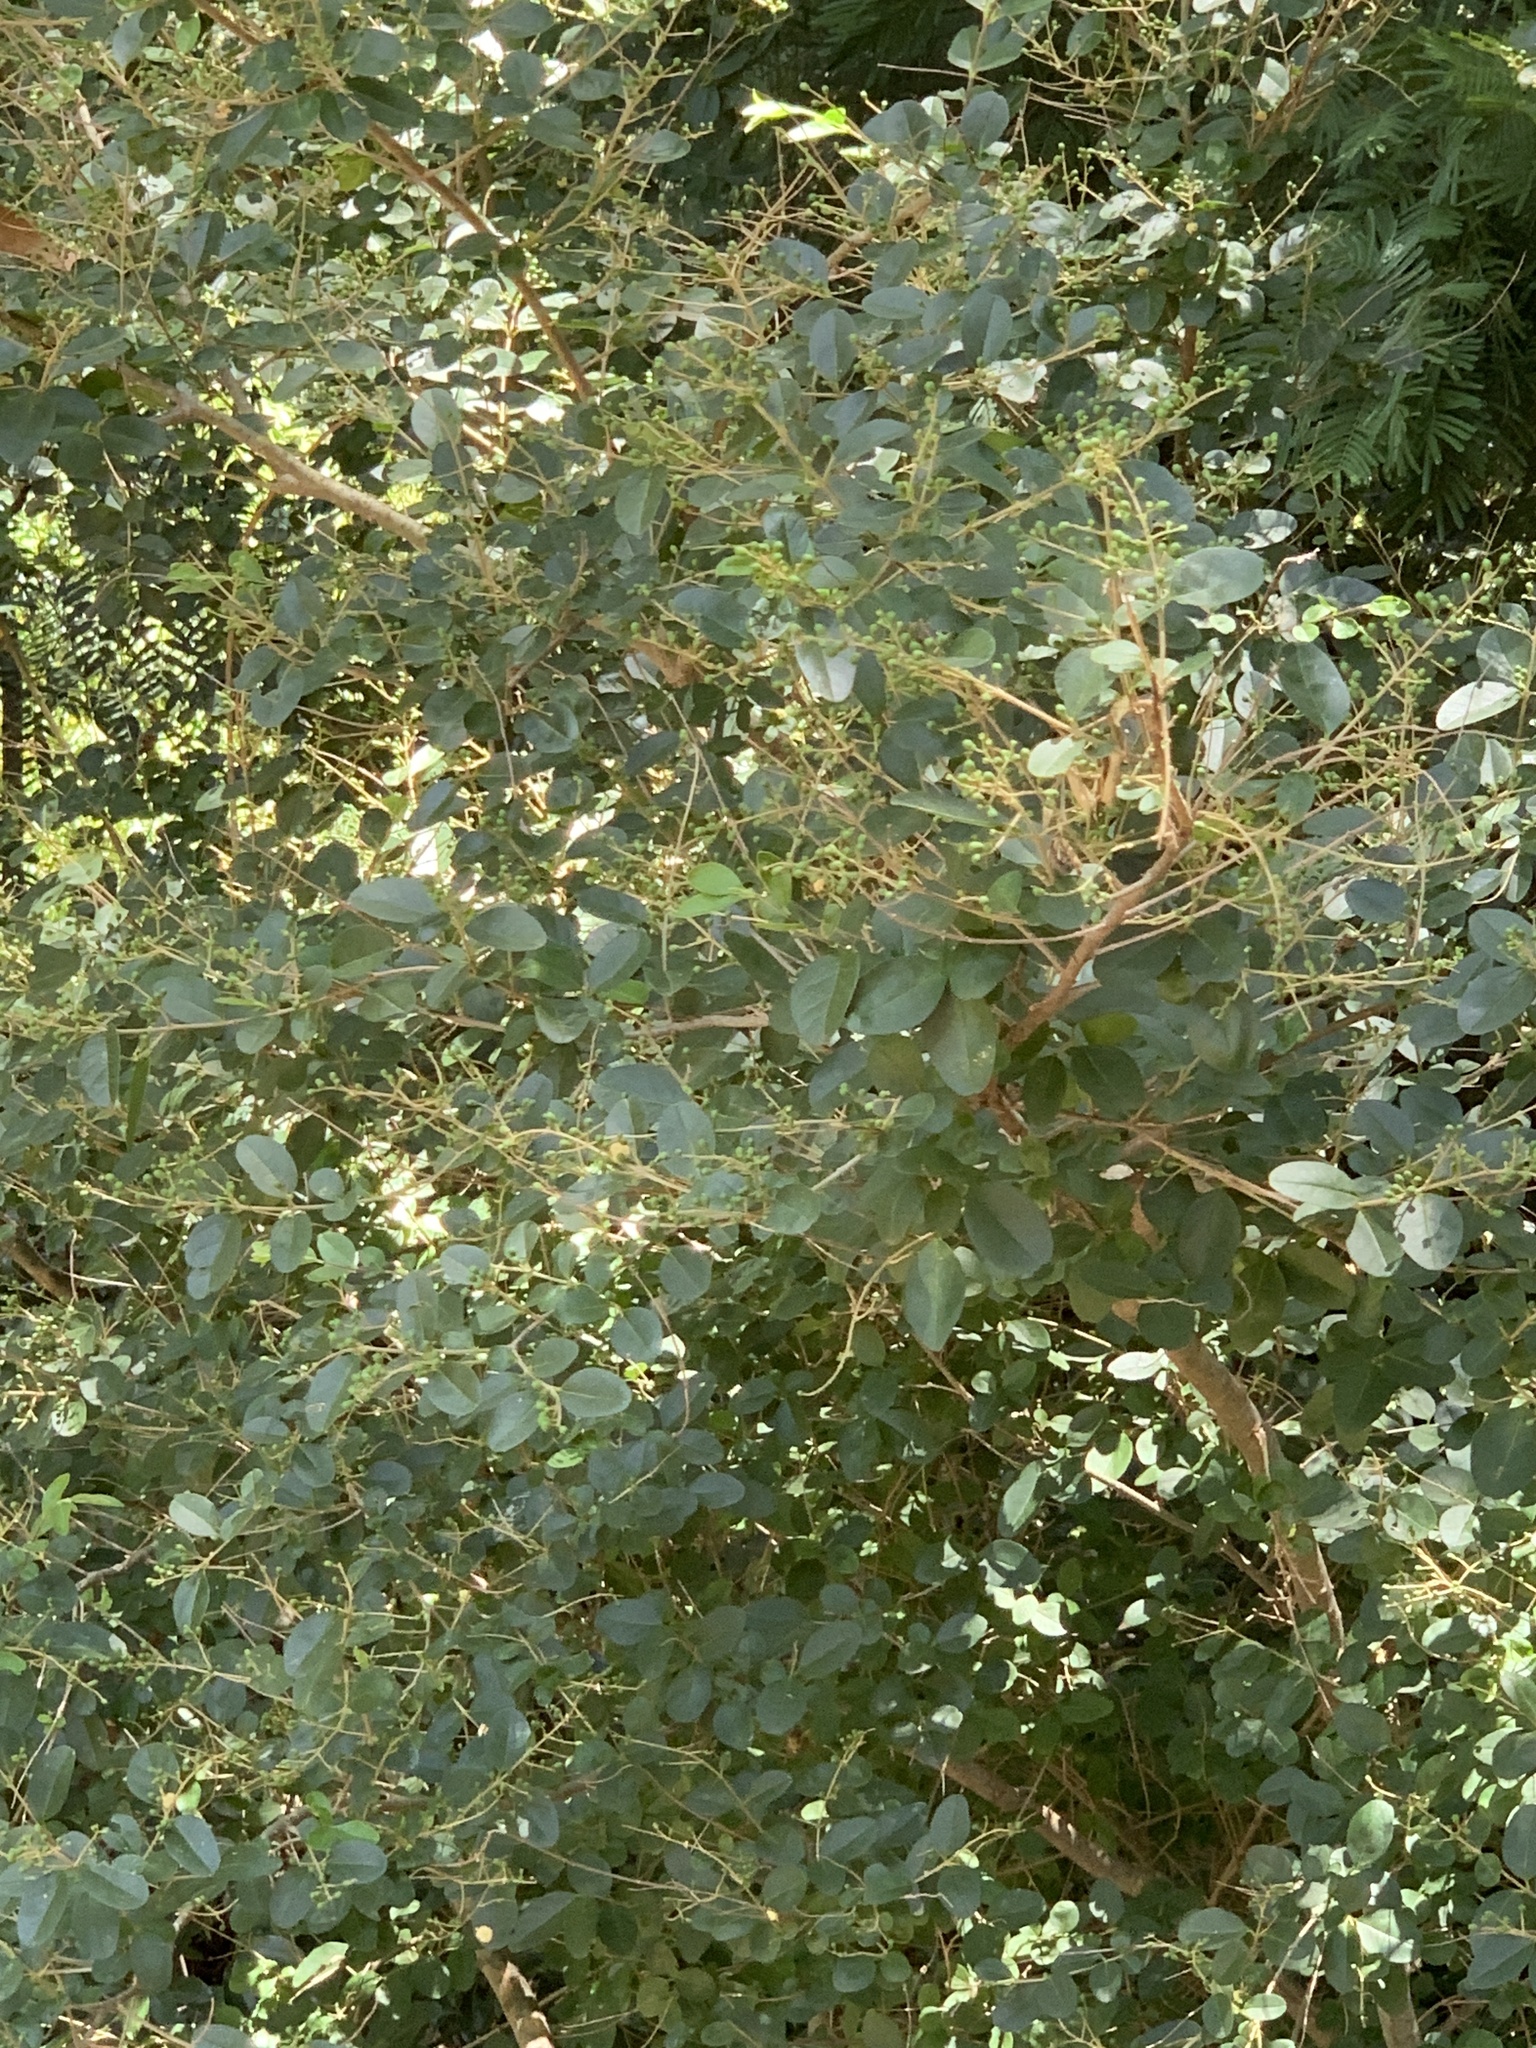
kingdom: Plantae
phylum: Tracheophyta
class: Magnoliopsida
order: Lamiales
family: Oleaceae
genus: Ligustrum
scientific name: Ligustrum sinense
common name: Chinese privet
